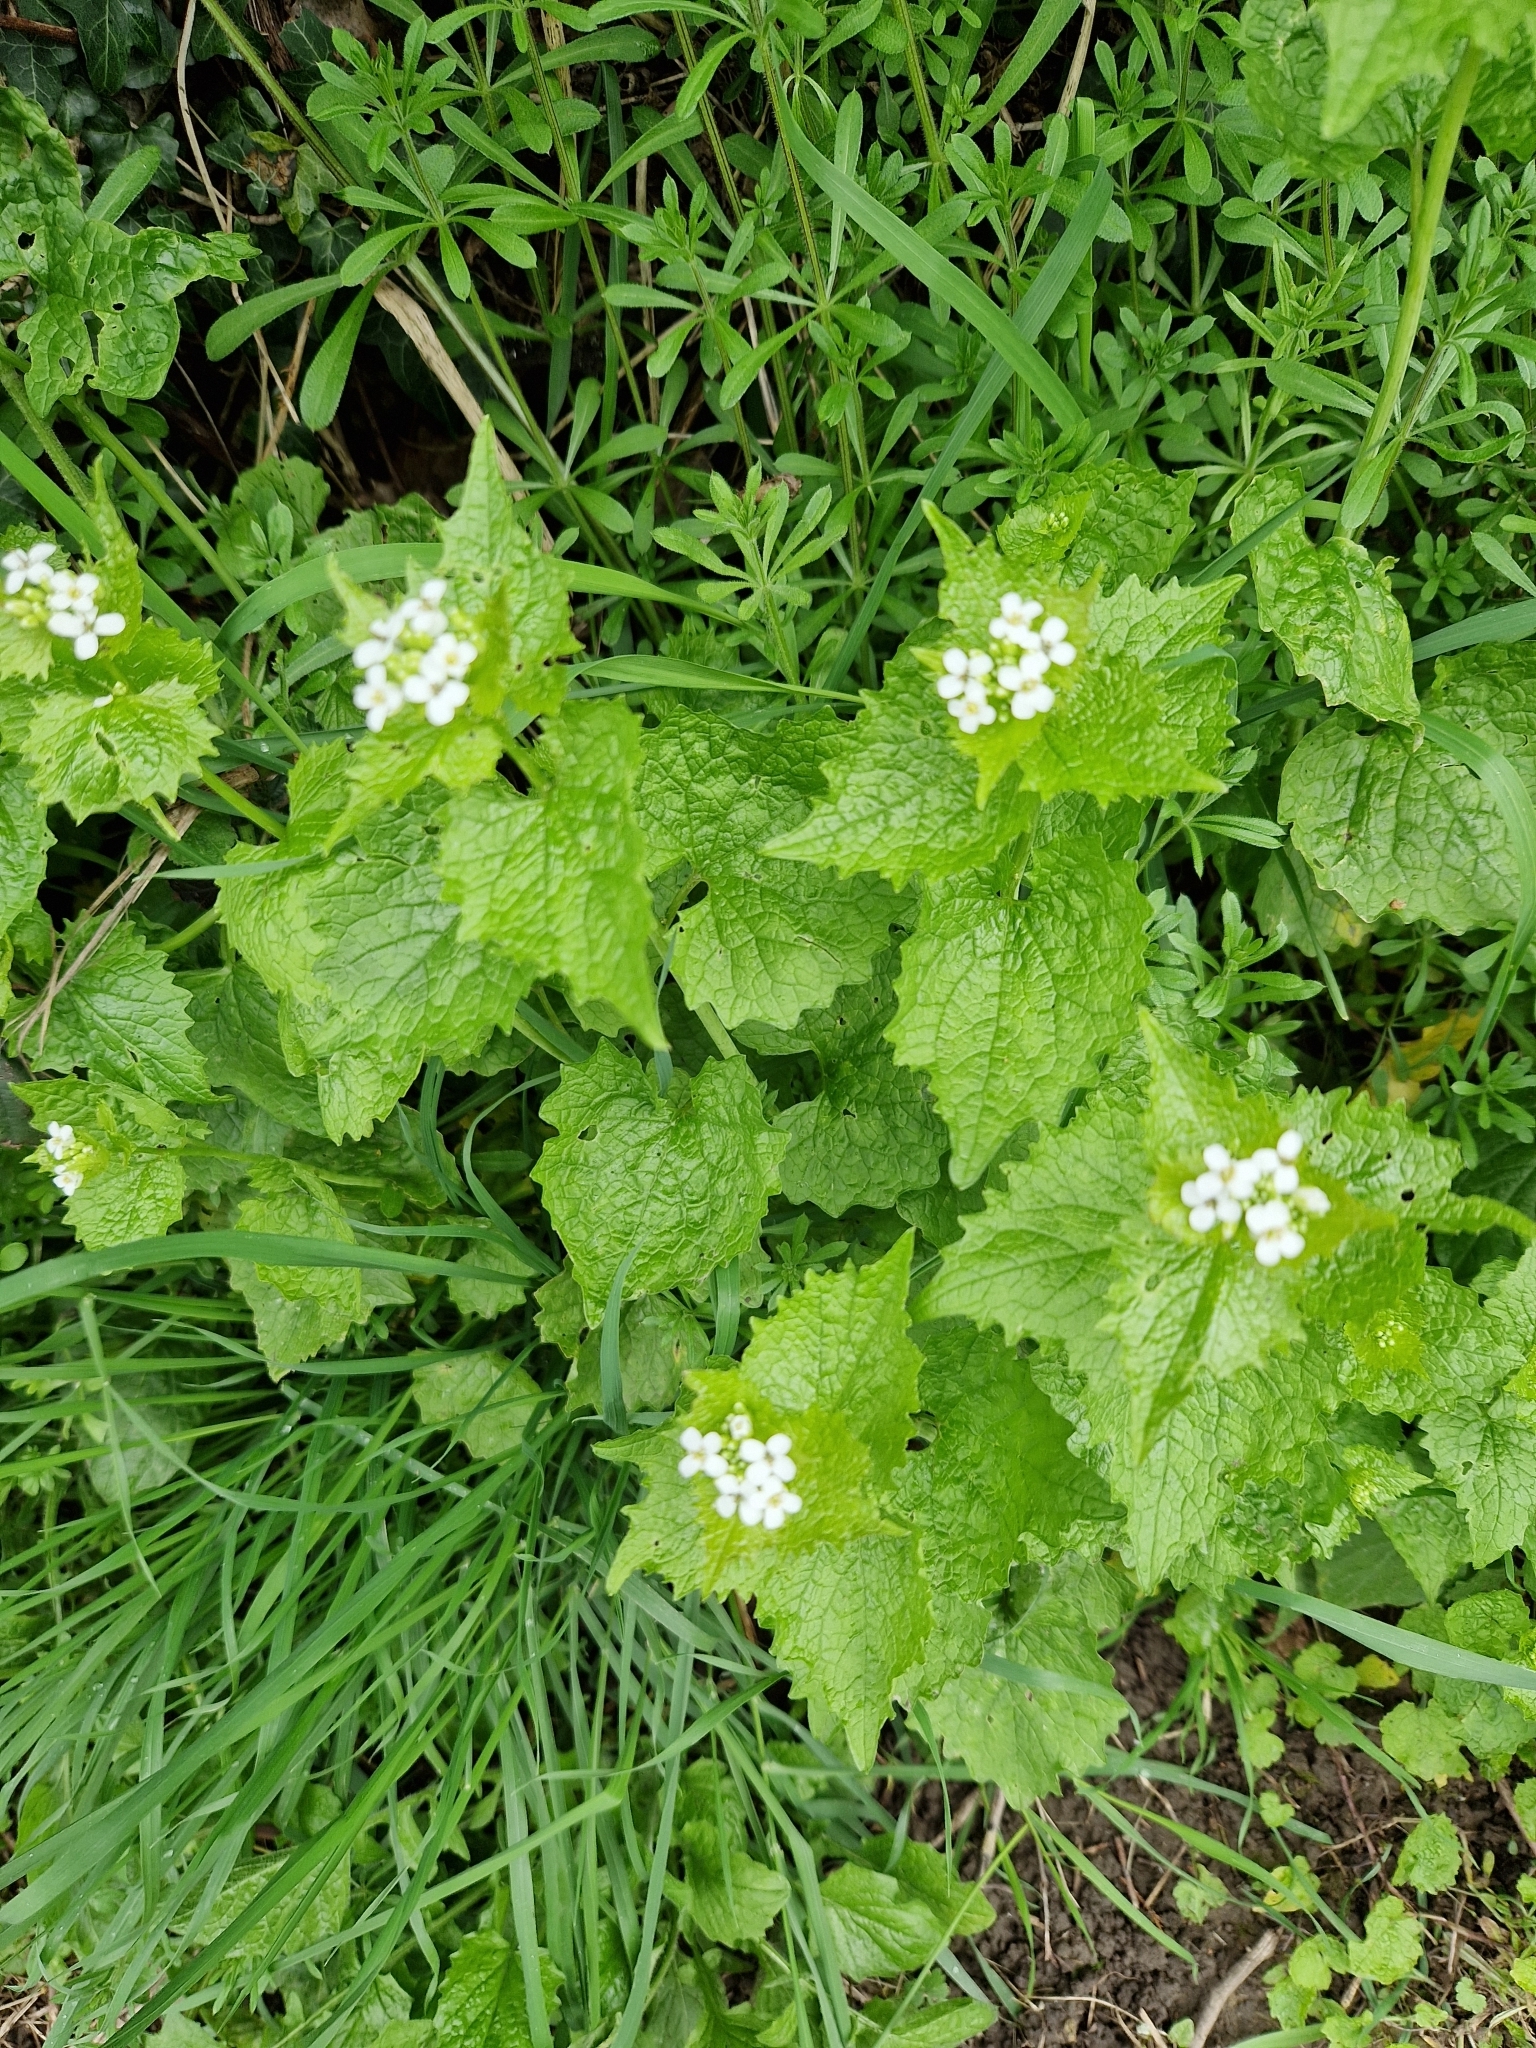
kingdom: Plantae
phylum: Tracheophyta
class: Magnoliopsida
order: Brassicales
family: Brassicaceae
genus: Alliaria
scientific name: Alliaria petiolata
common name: Garlic mustard
